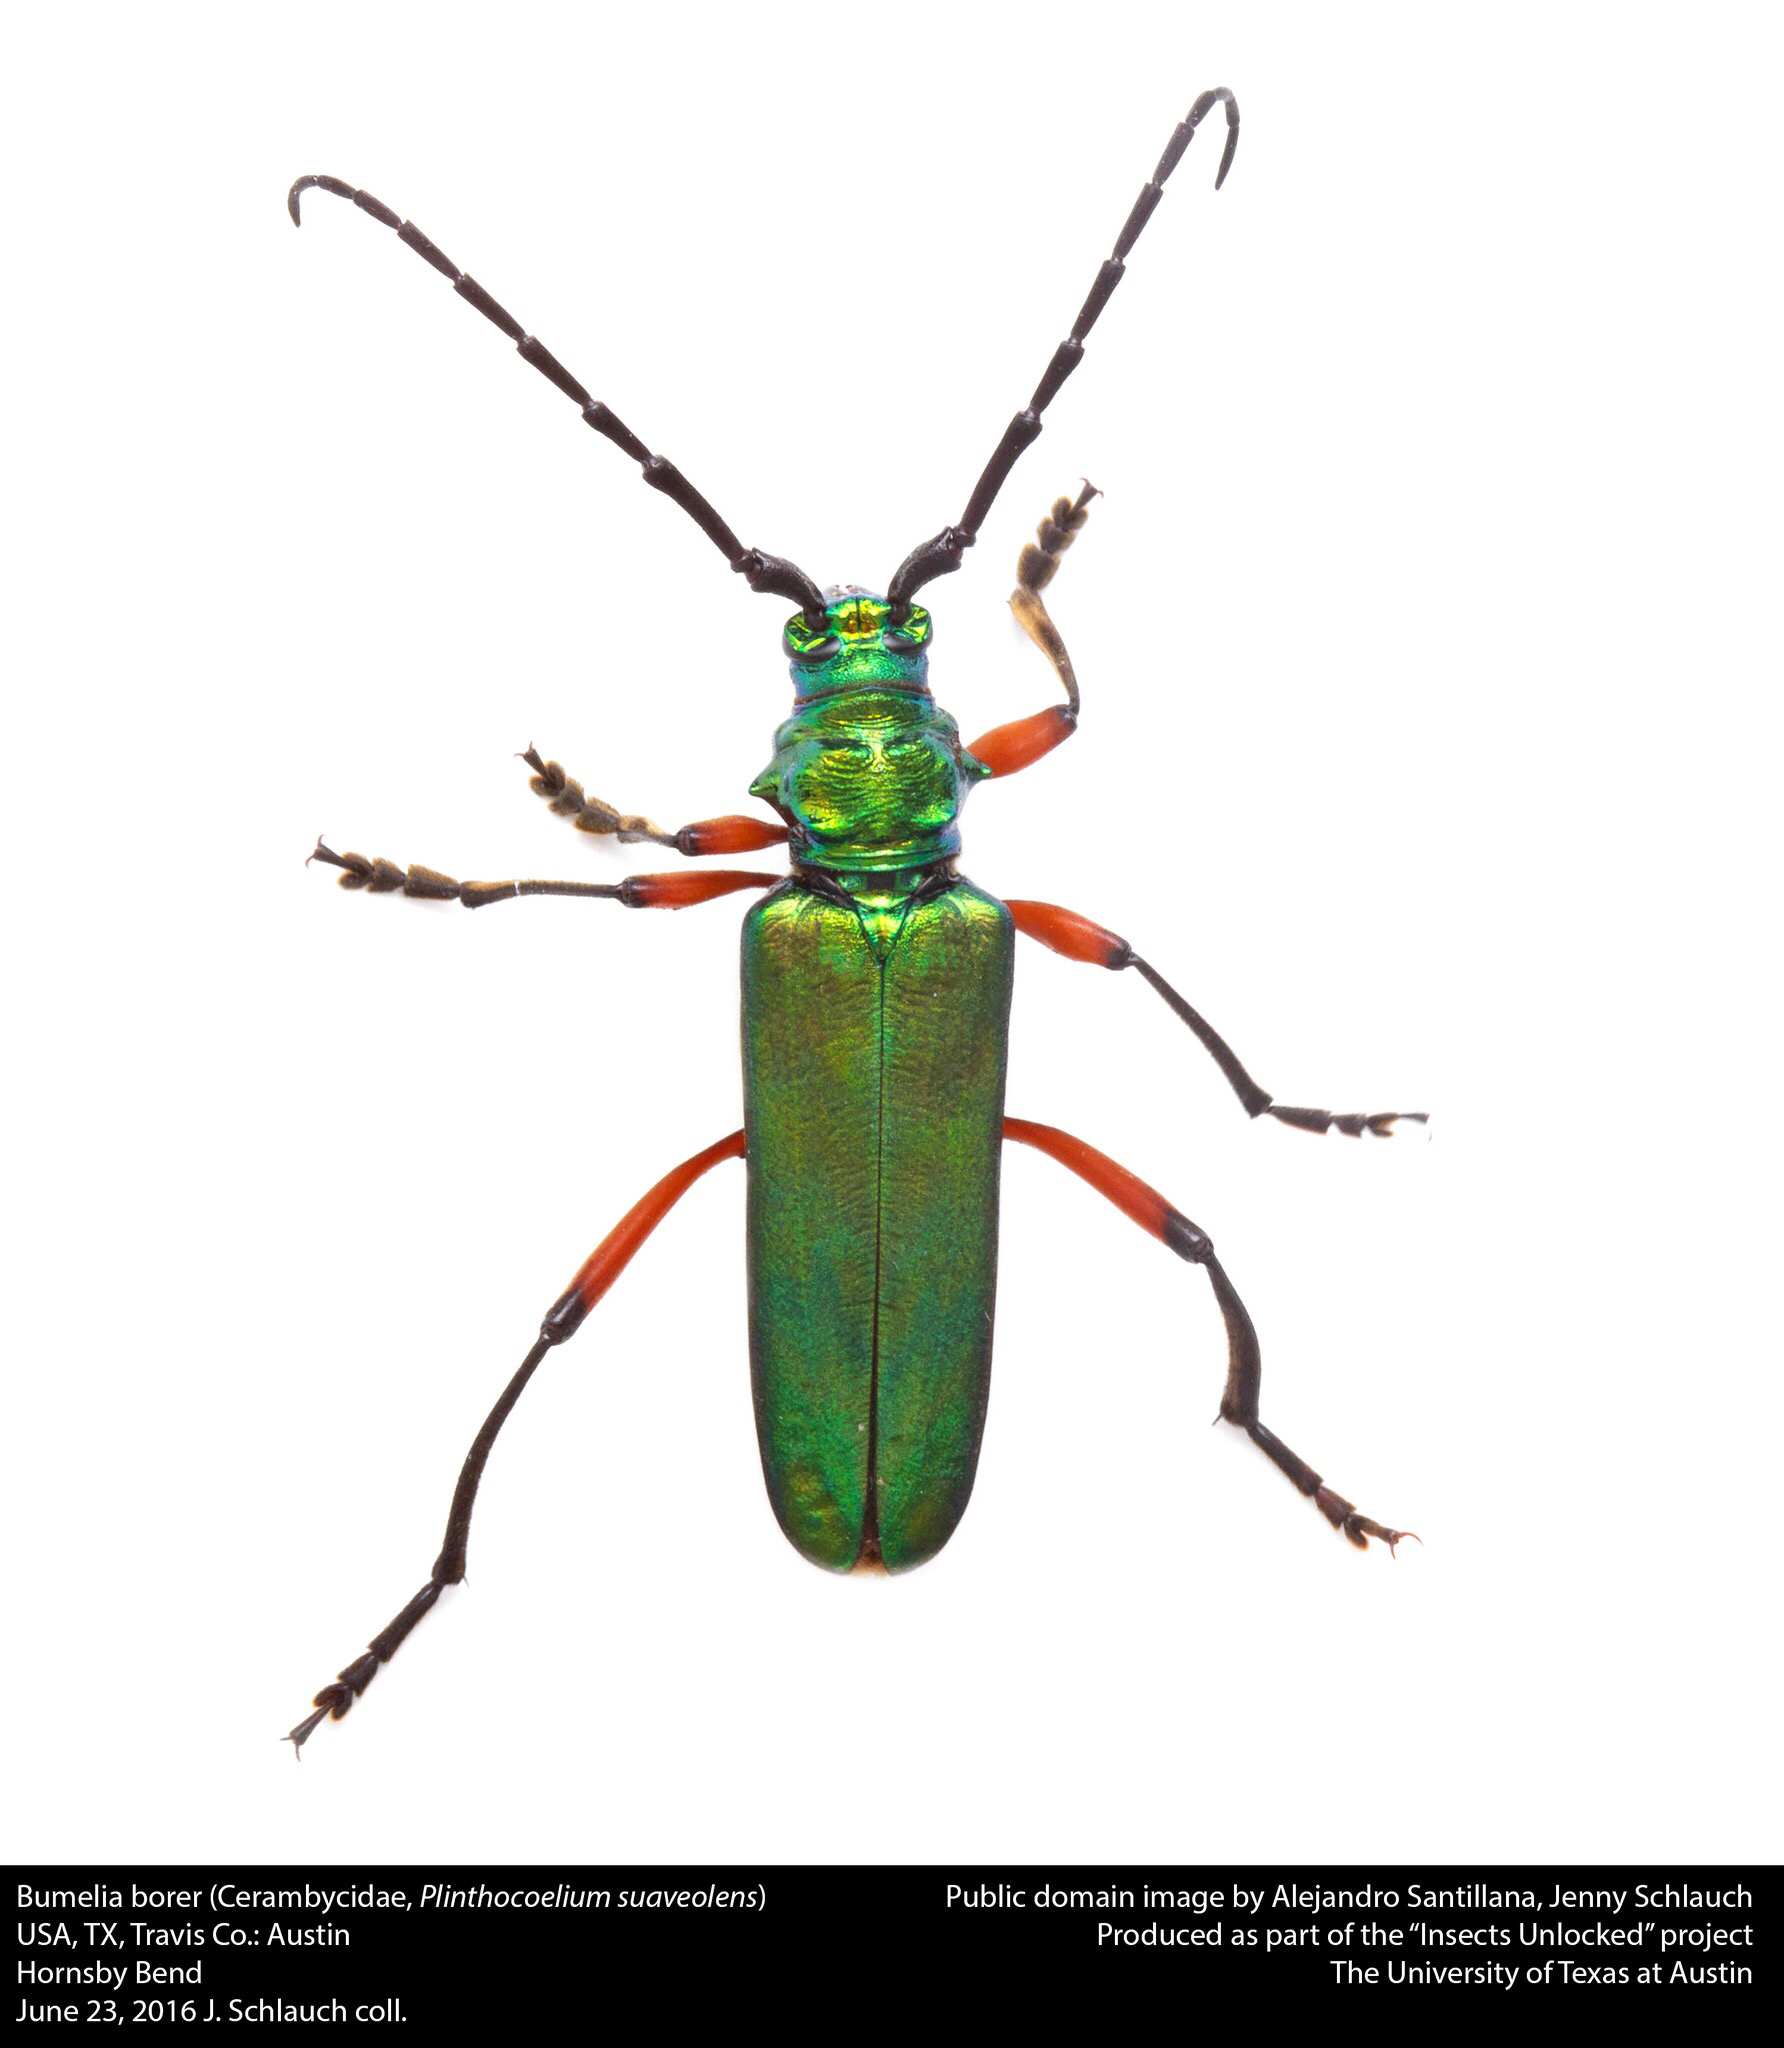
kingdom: Animalia
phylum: Arthropoda
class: Insecta
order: Coleoptera
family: Cerambycidae
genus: Plinthocoelium
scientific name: Plinthocoelium suaveolens
